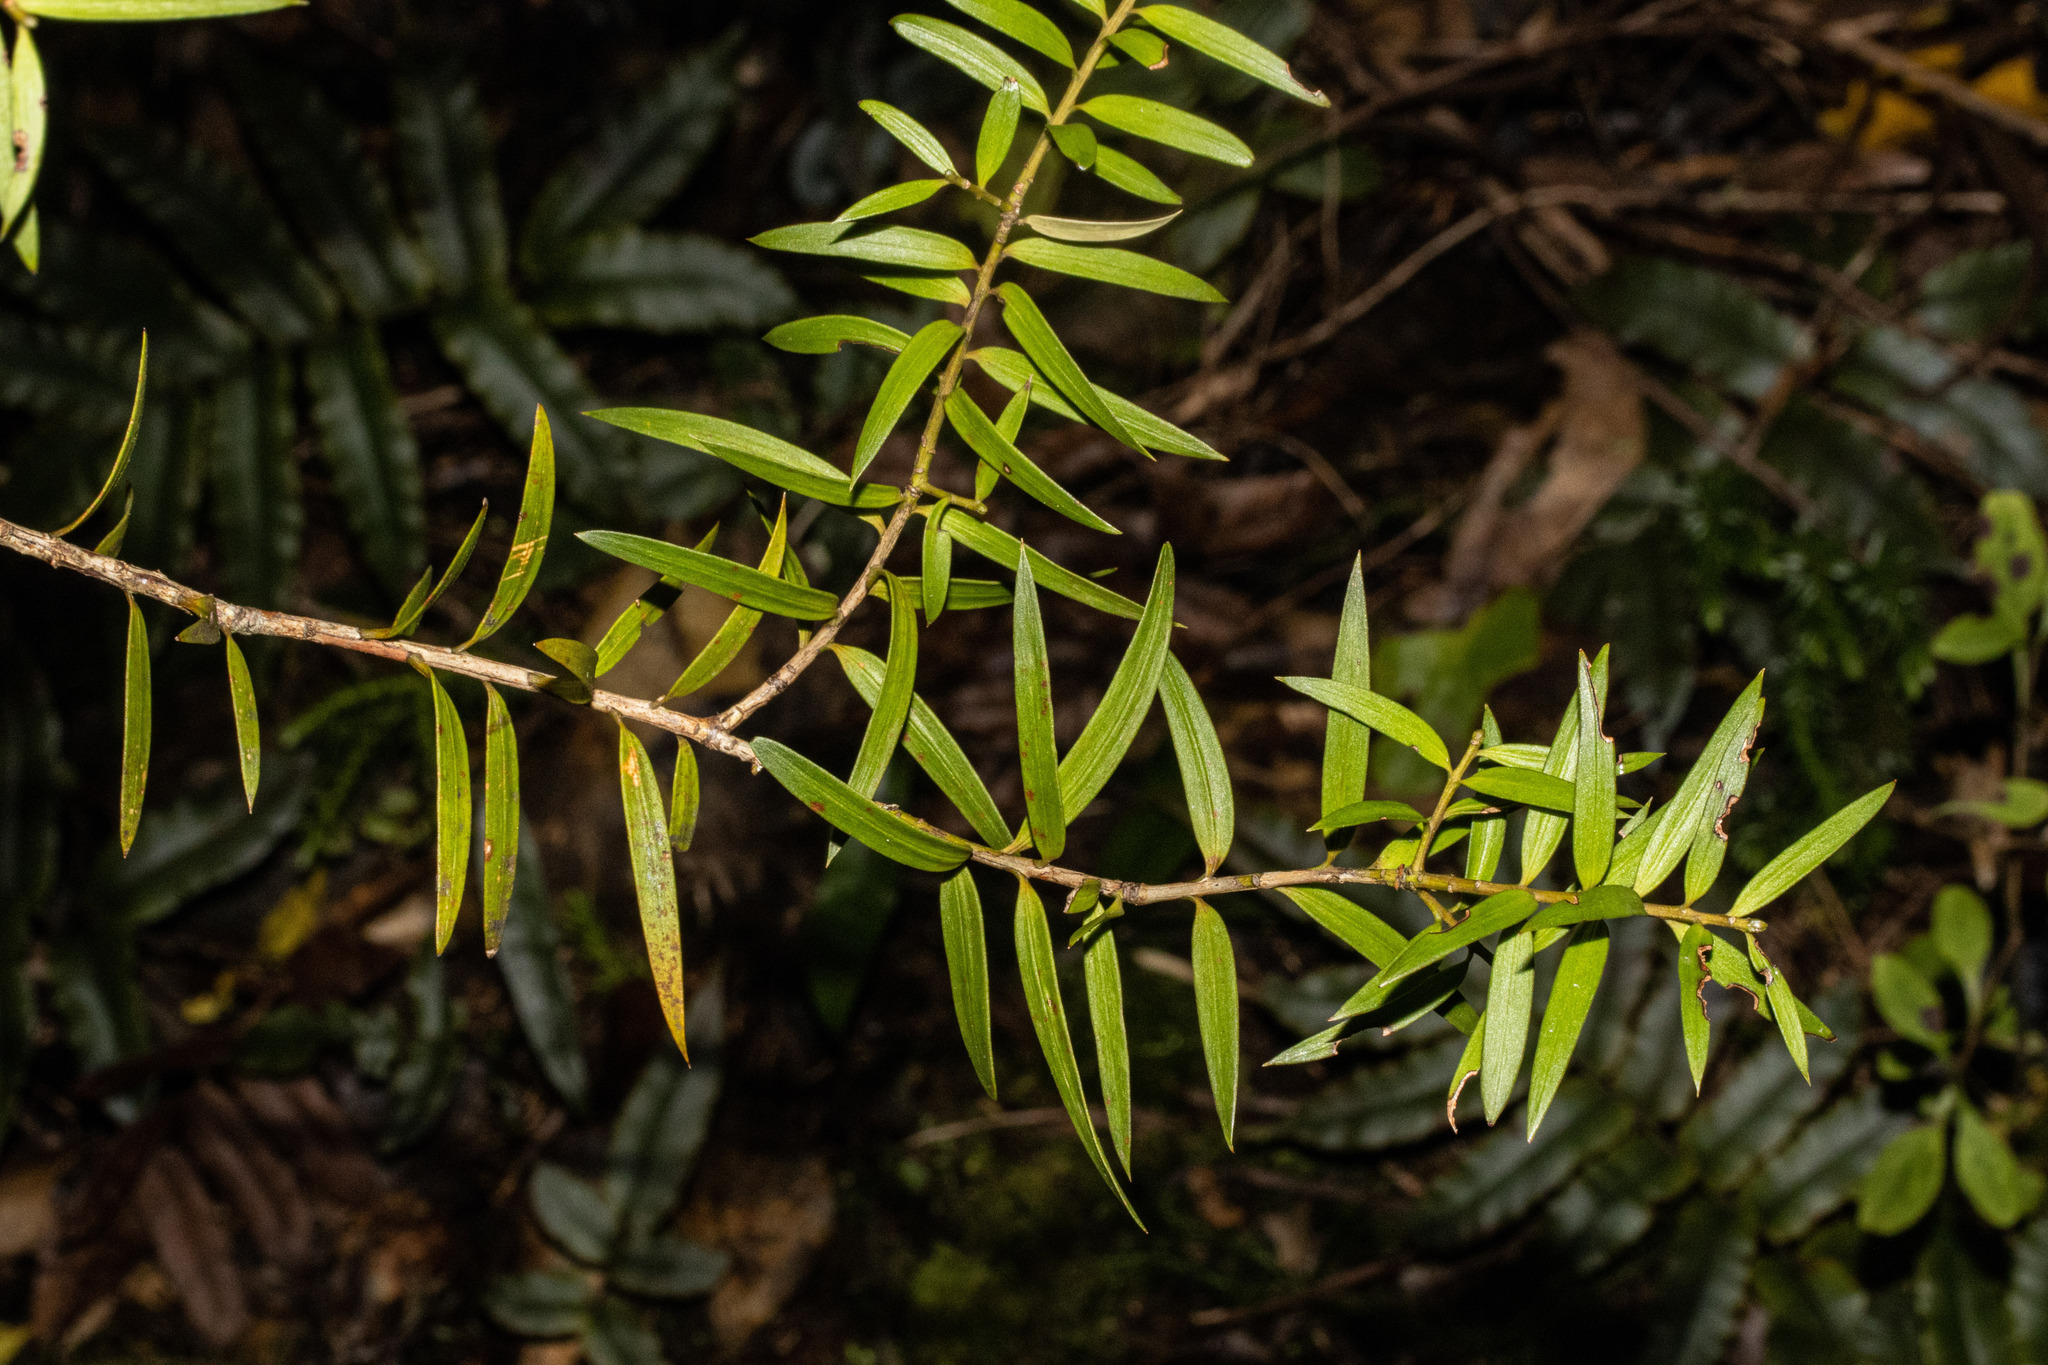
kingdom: Plantae
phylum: Tracheophyta
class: Pinopsida
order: Pinales
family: Podocarpaceae
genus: Podocarpus
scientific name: Podocarpus totara
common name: Totara
